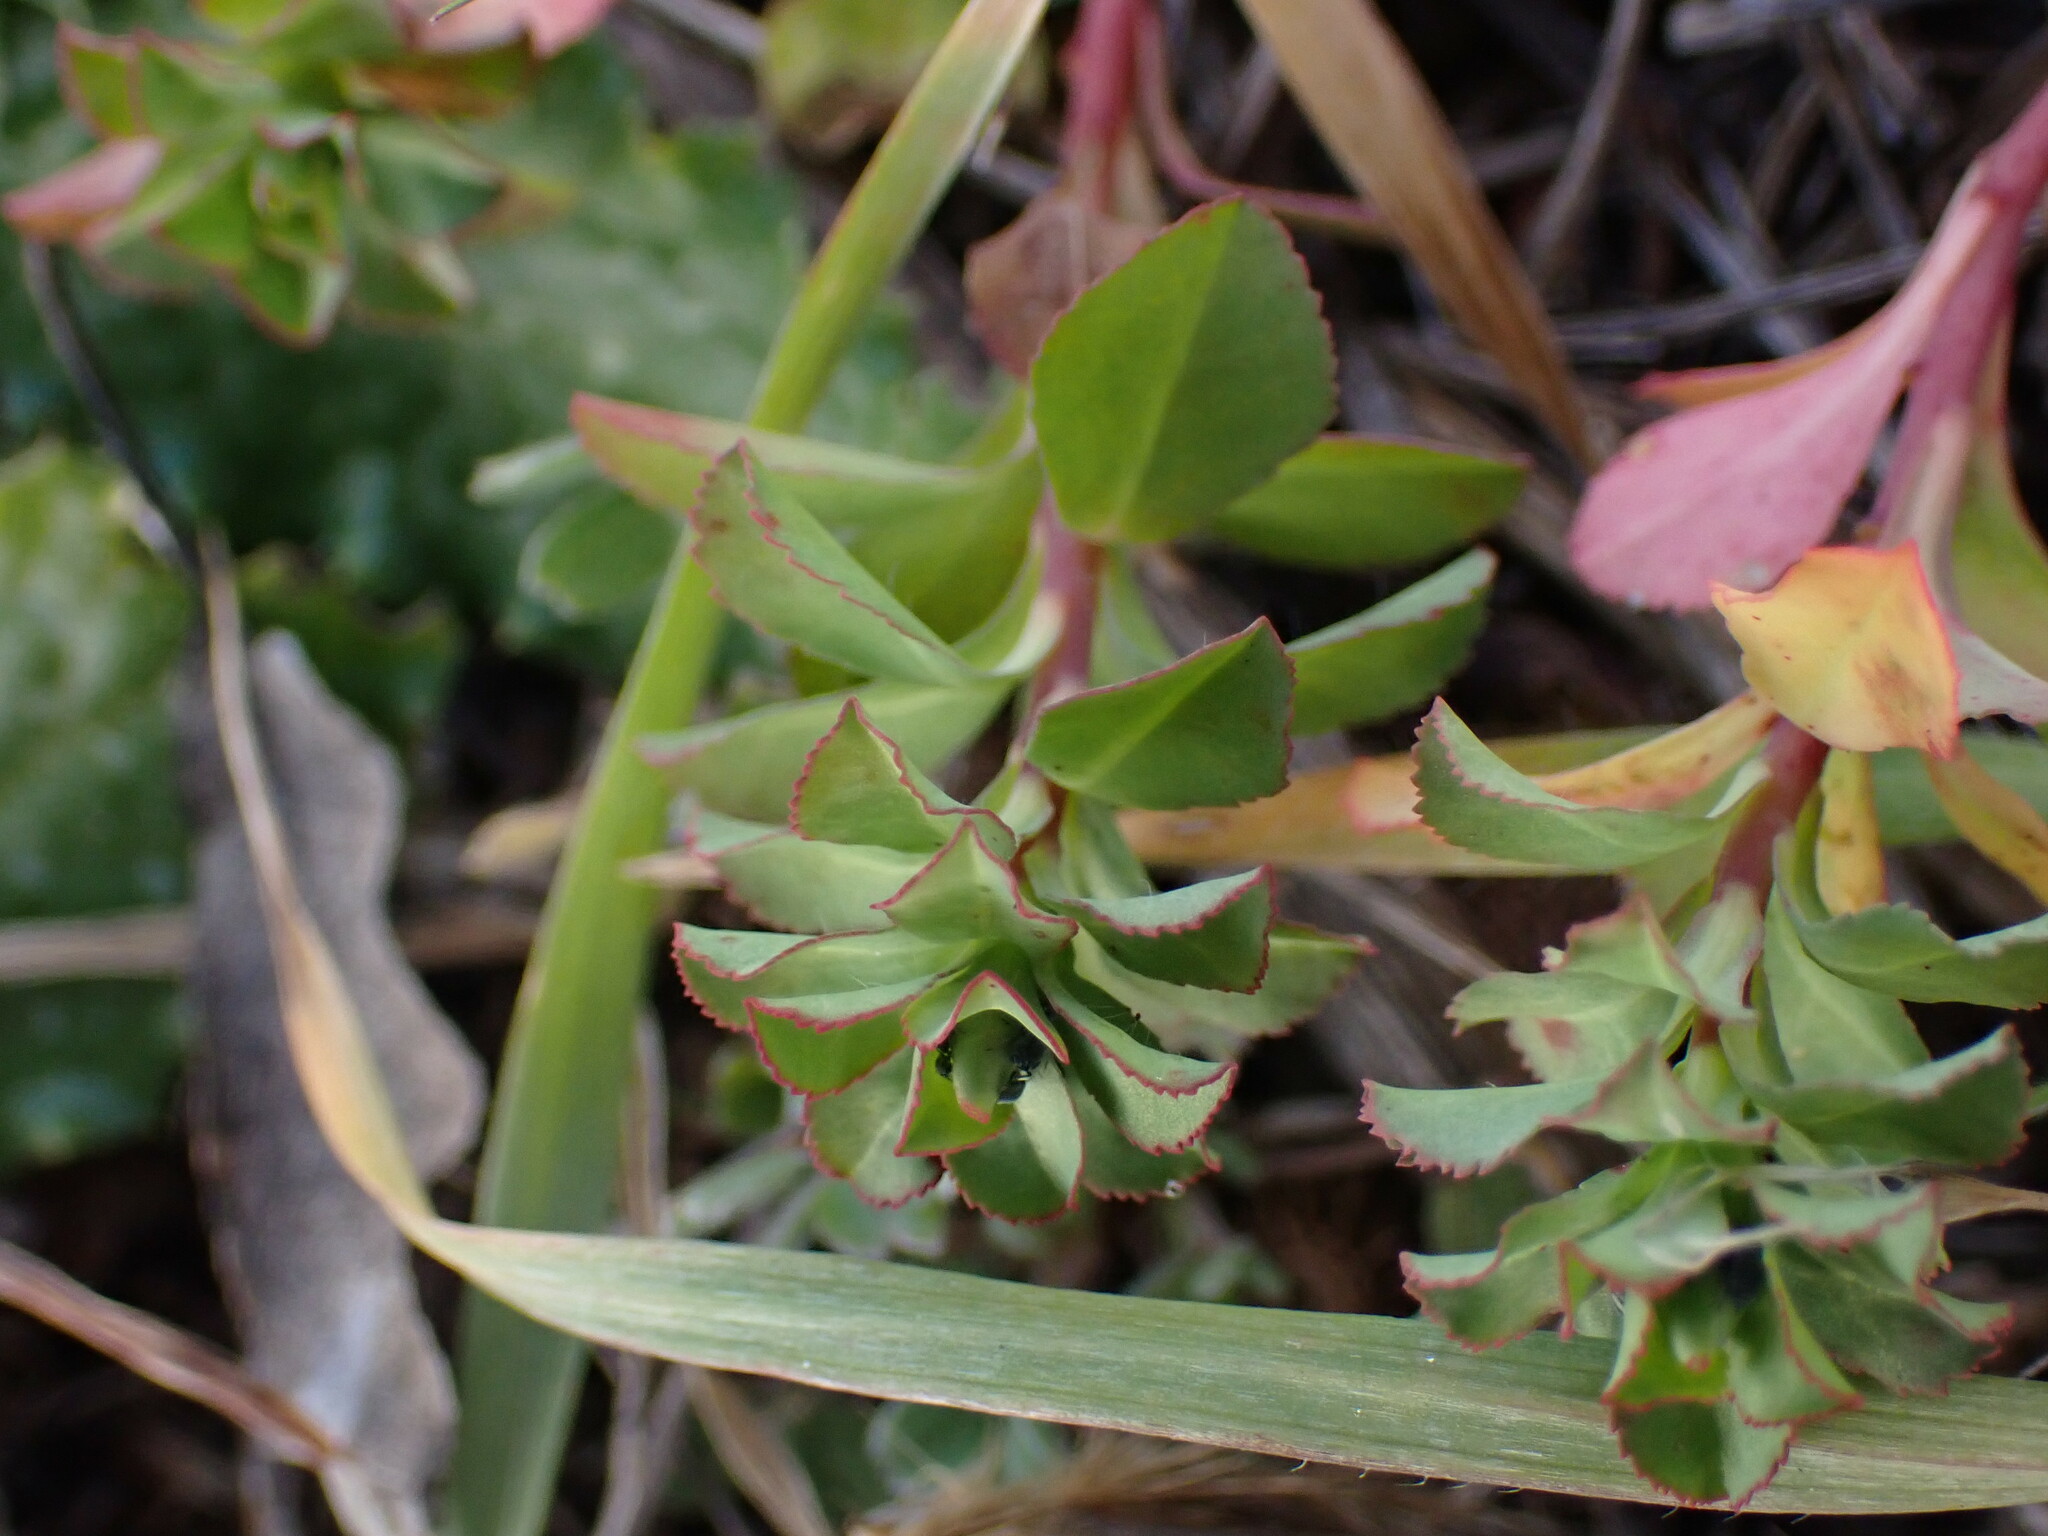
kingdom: Plantae
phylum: Tracheophyta
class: Magnoliopsida
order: Malpighiales
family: Euphorbiaceae
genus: Euphorbia
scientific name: Euphorbia helioscopia
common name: Sun spurge
